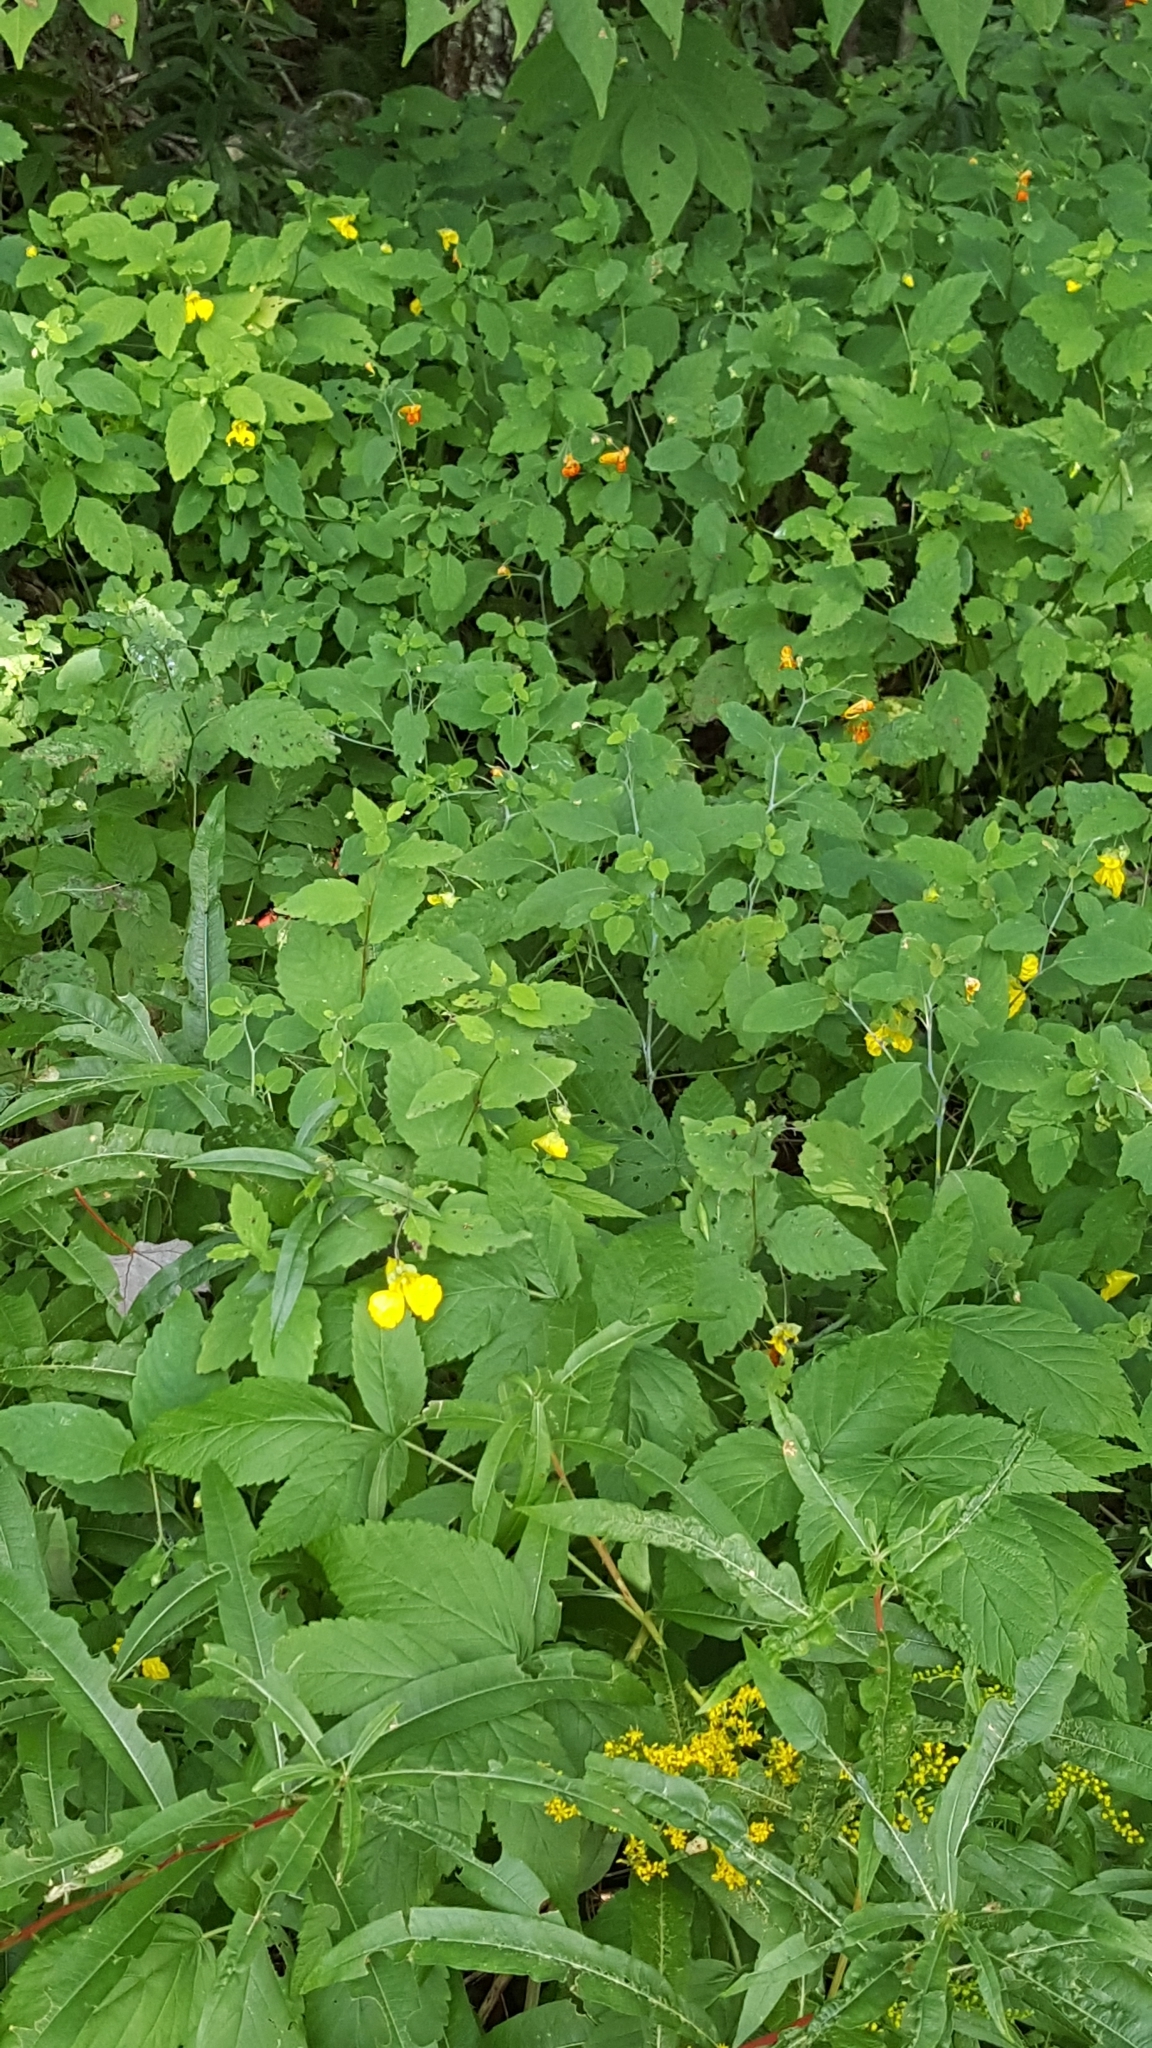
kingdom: Plantae
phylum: Tracheophyta
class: Magnoliopsida
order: Ericales
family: Balsaminaceae
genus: Impatiens
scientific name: Impatiens pallida
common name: Pale snapweed
